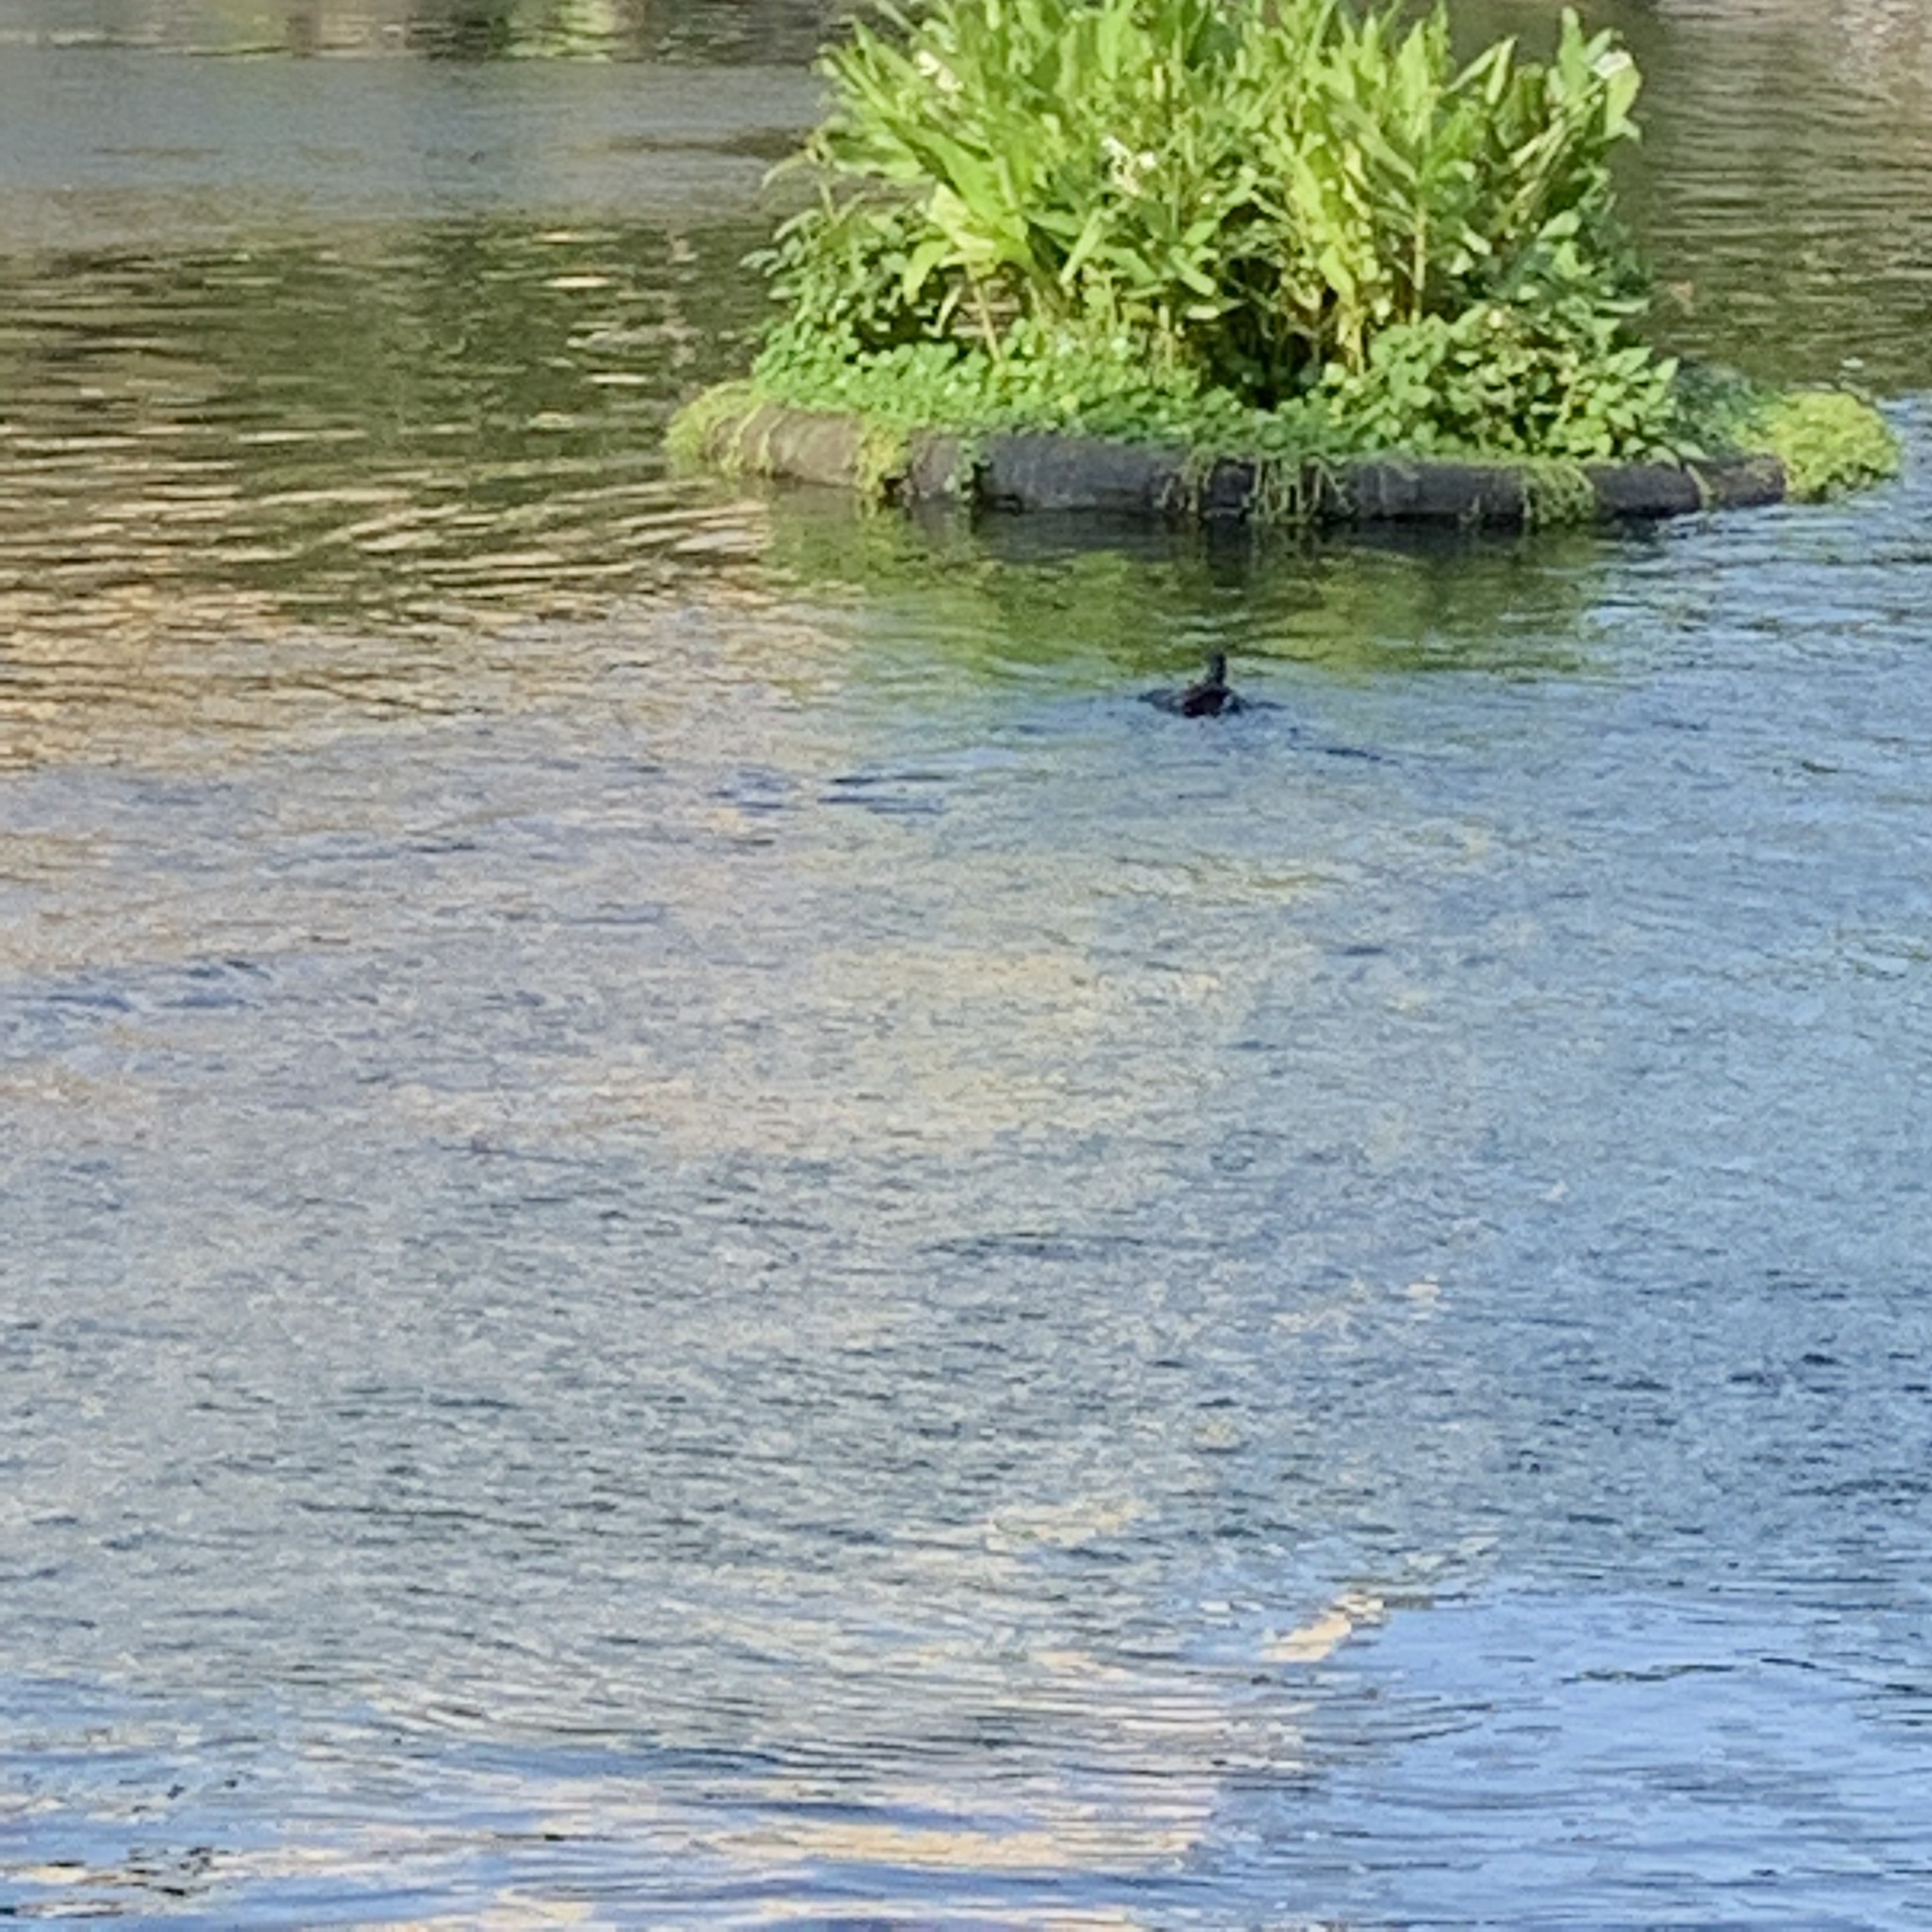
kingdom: Animalia
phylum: Chordata
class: Aves
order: Gruiformes
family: Rallidae
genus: Gallinula
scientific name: Gallinula chloropus
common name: Common moorhen
